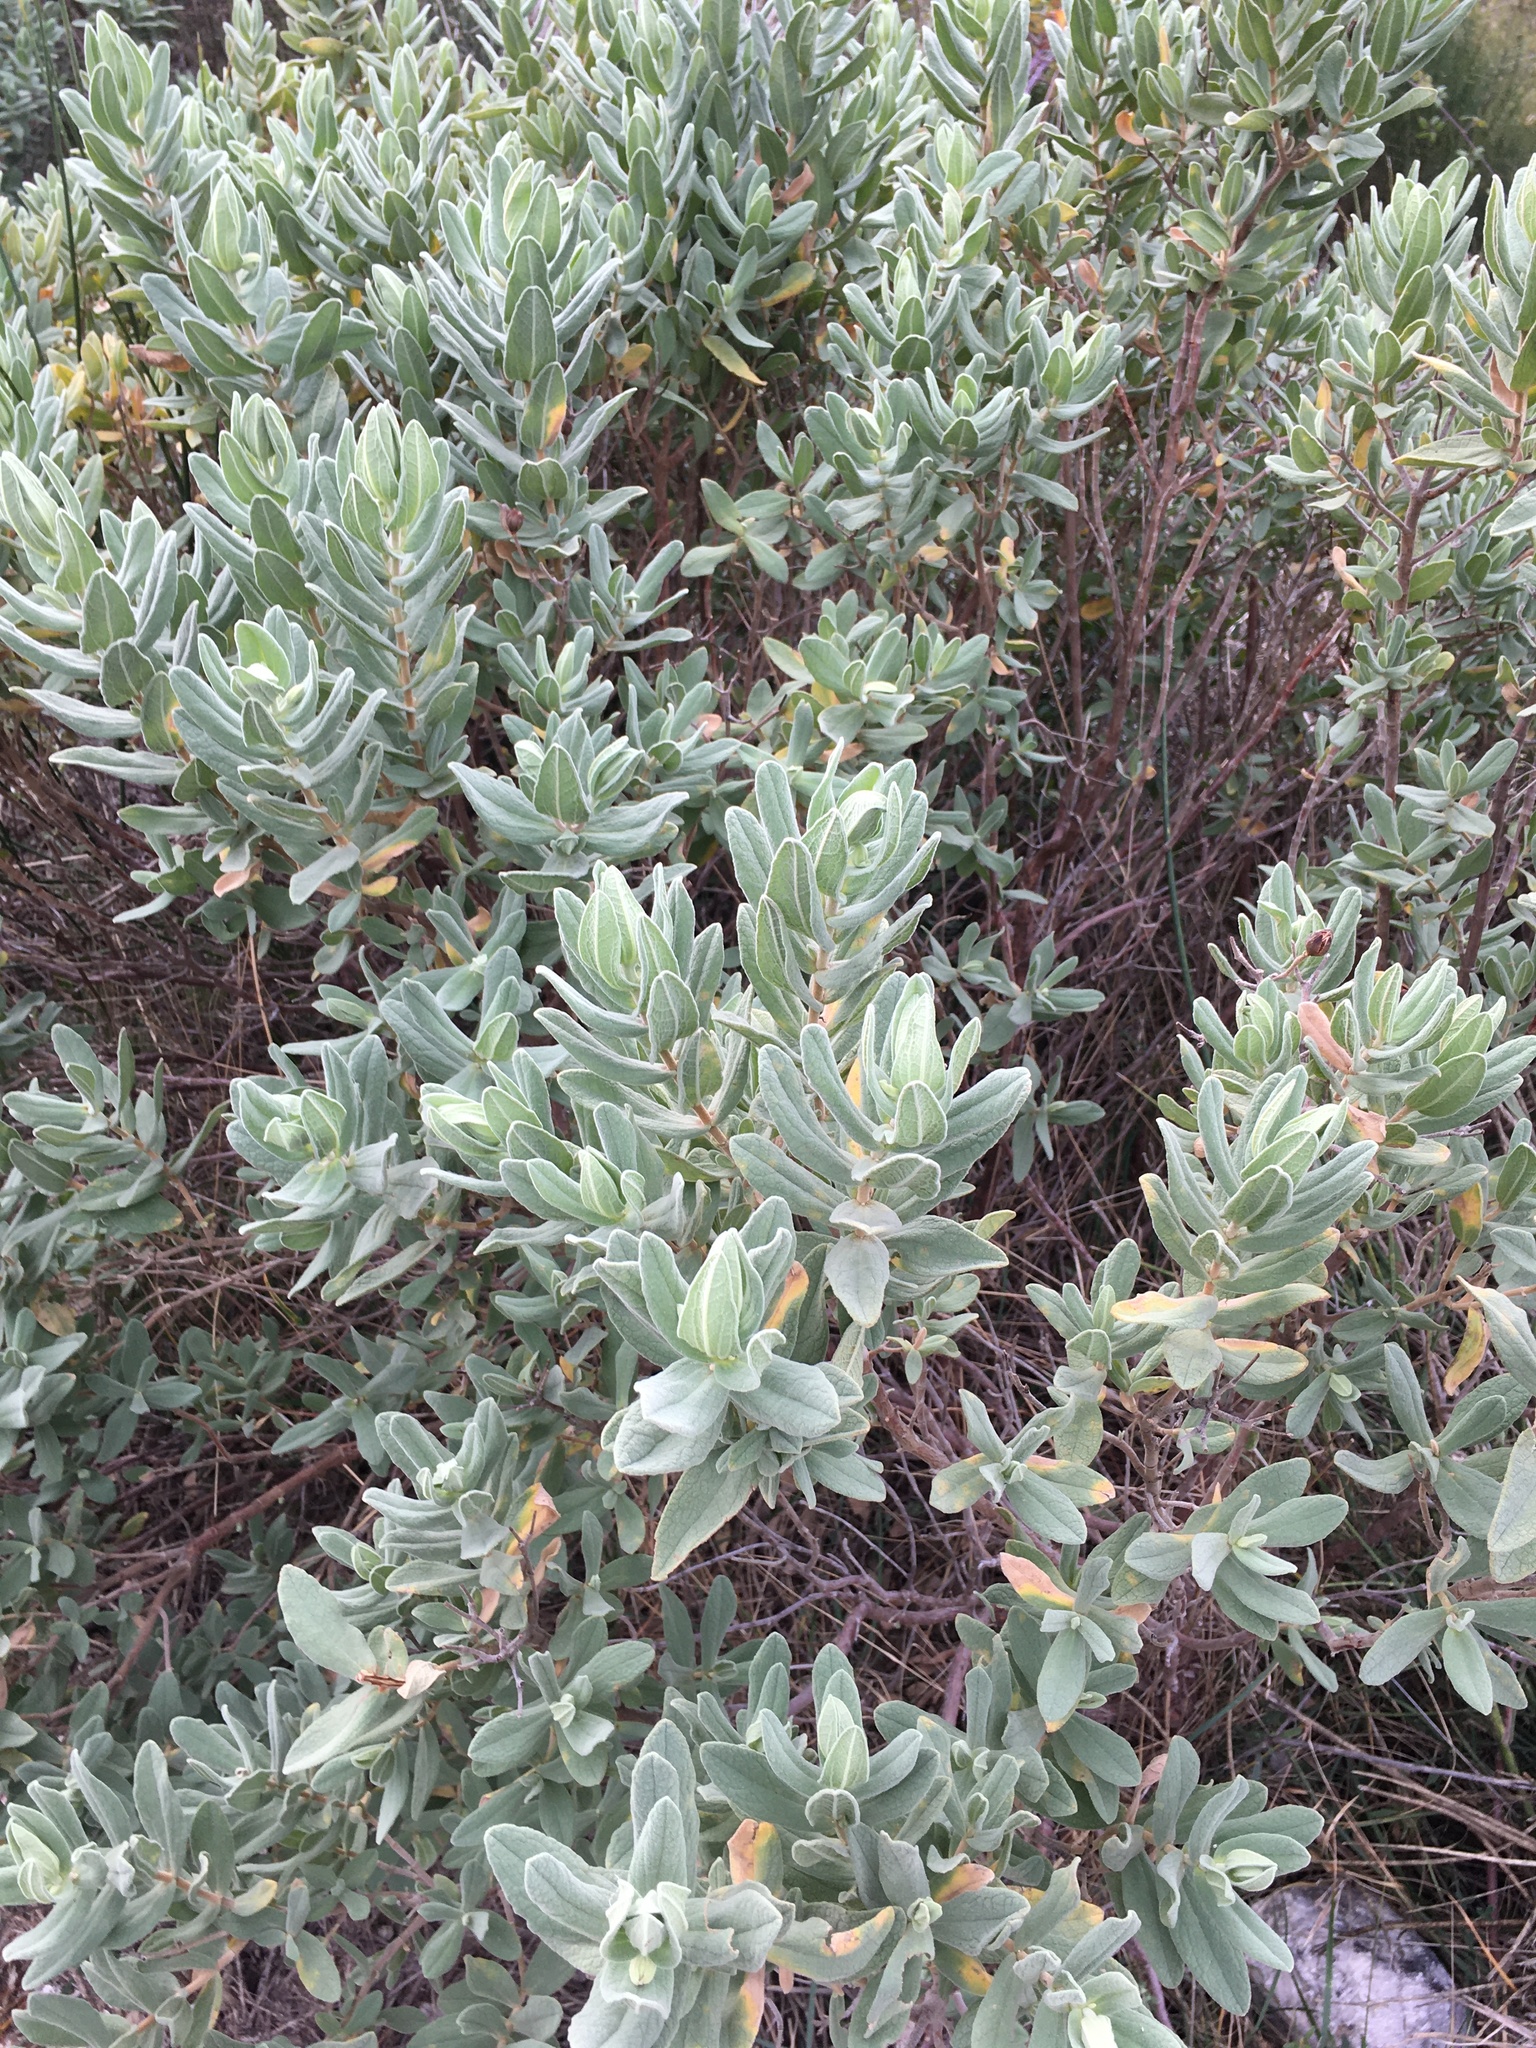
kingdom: Plantae
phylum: Tracheophyta
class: Magnoliopsida
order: Malvales
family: Cistaceae
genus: Cistus
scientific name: Cistus albidus
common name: White-leaf rock-rose
